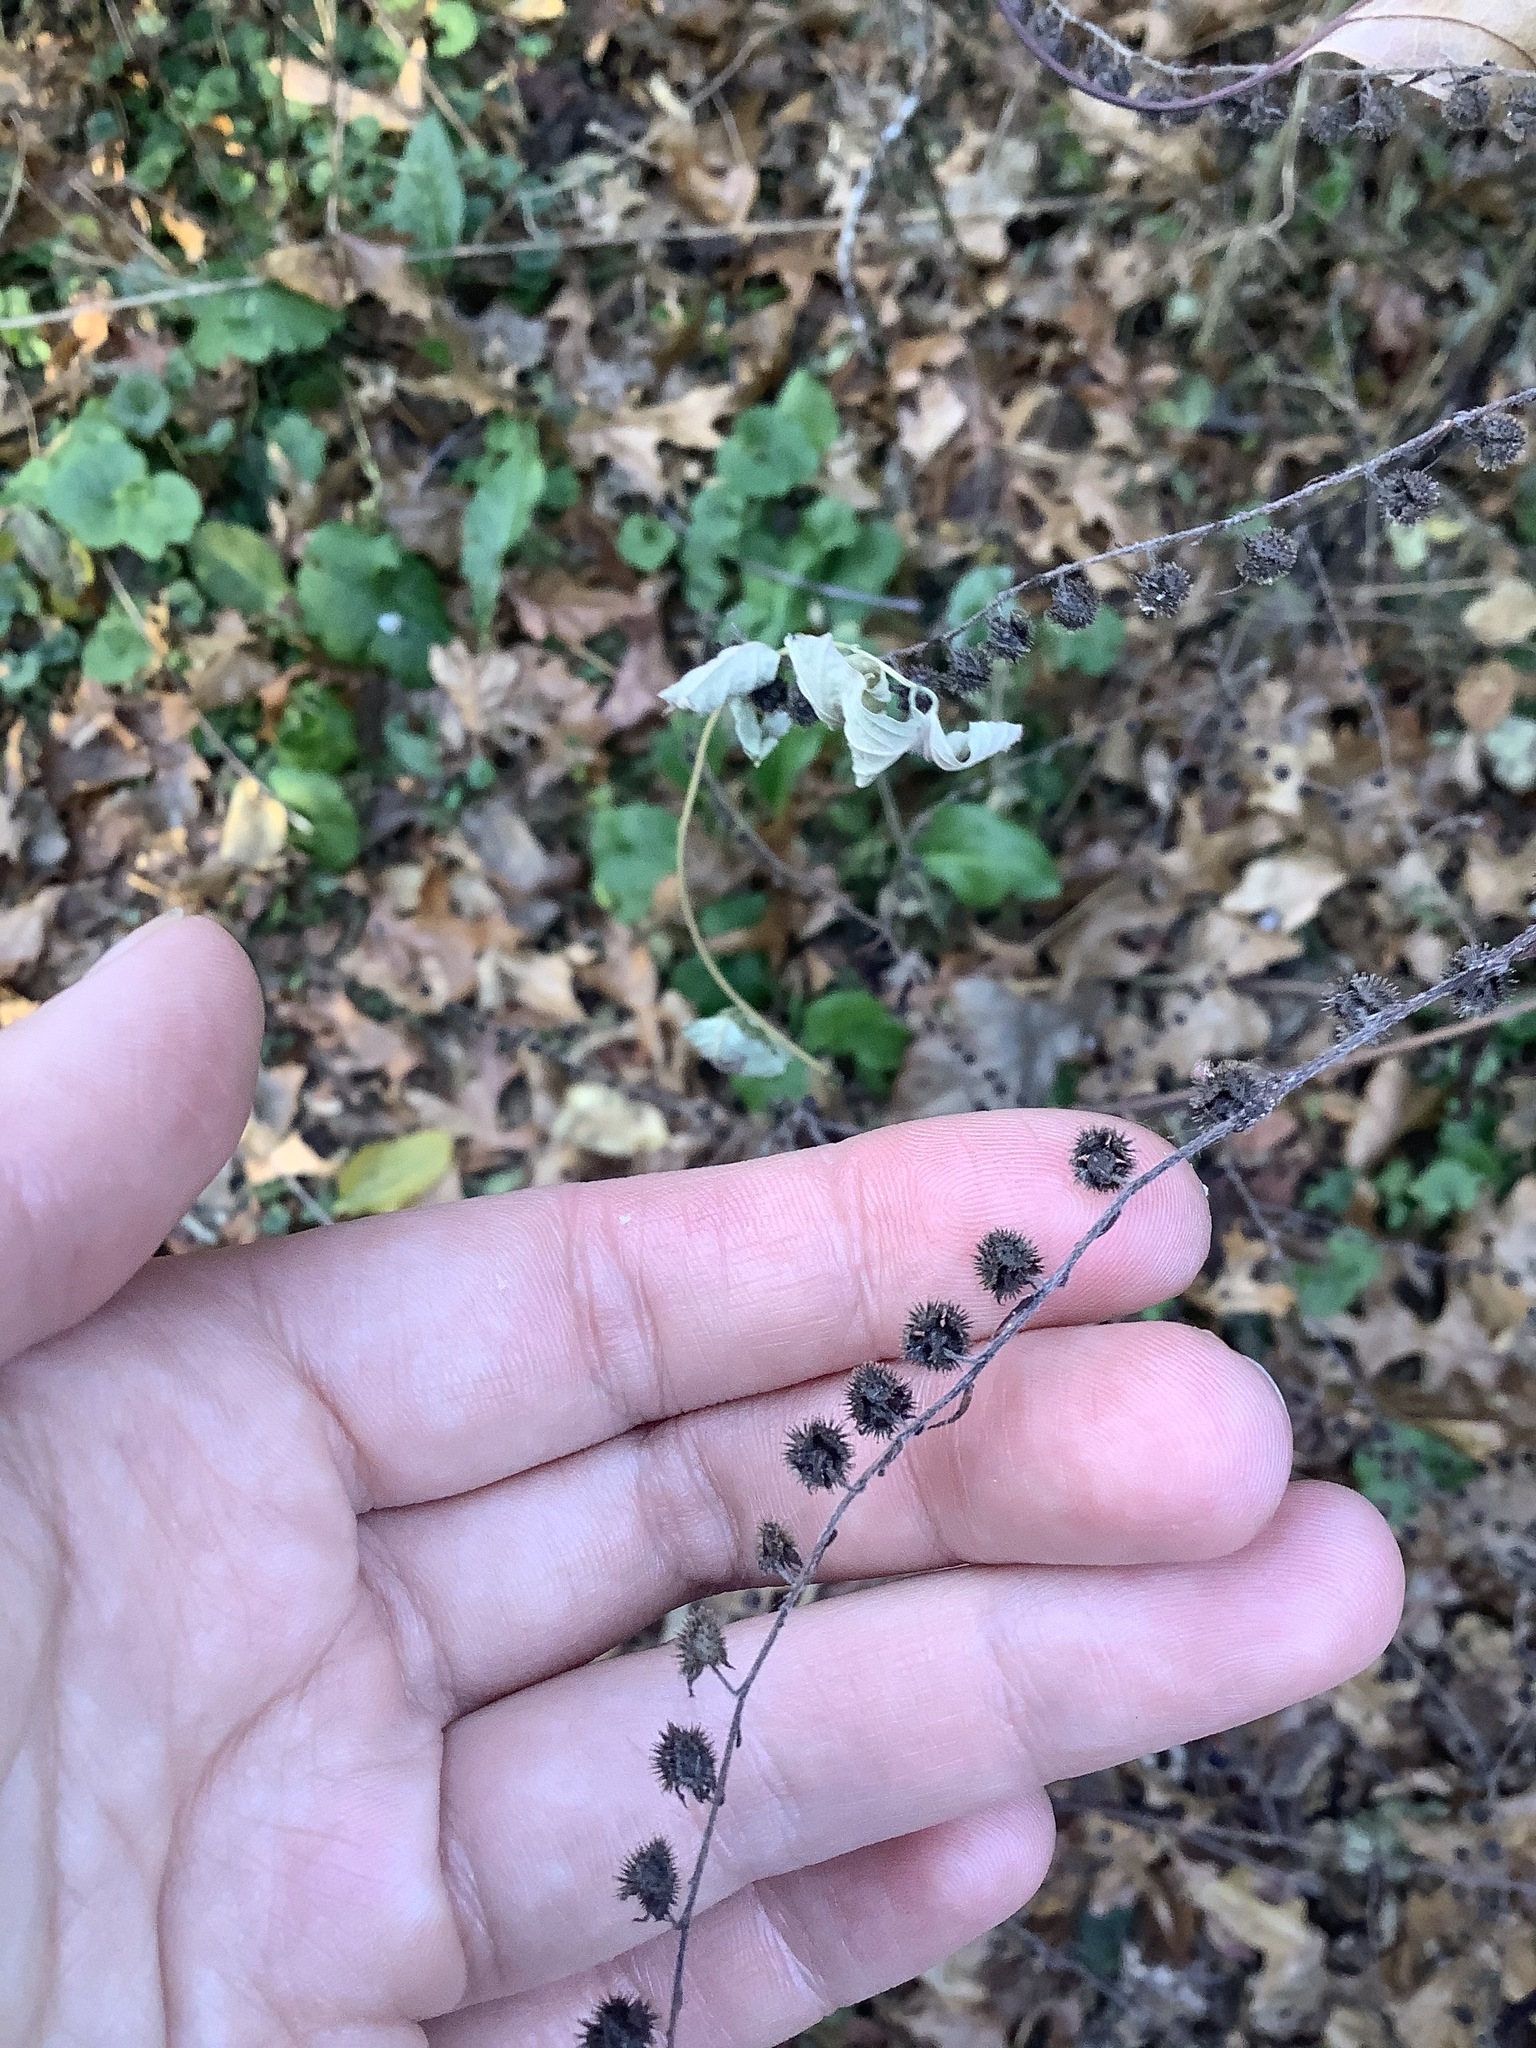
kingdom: Plantae
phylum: Tracheophyta
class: Magnoliopsida
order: Boraginales
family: Boraginaceae
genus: Hackelia
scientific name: Hackelia virginiana
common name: Beggar's-lice
